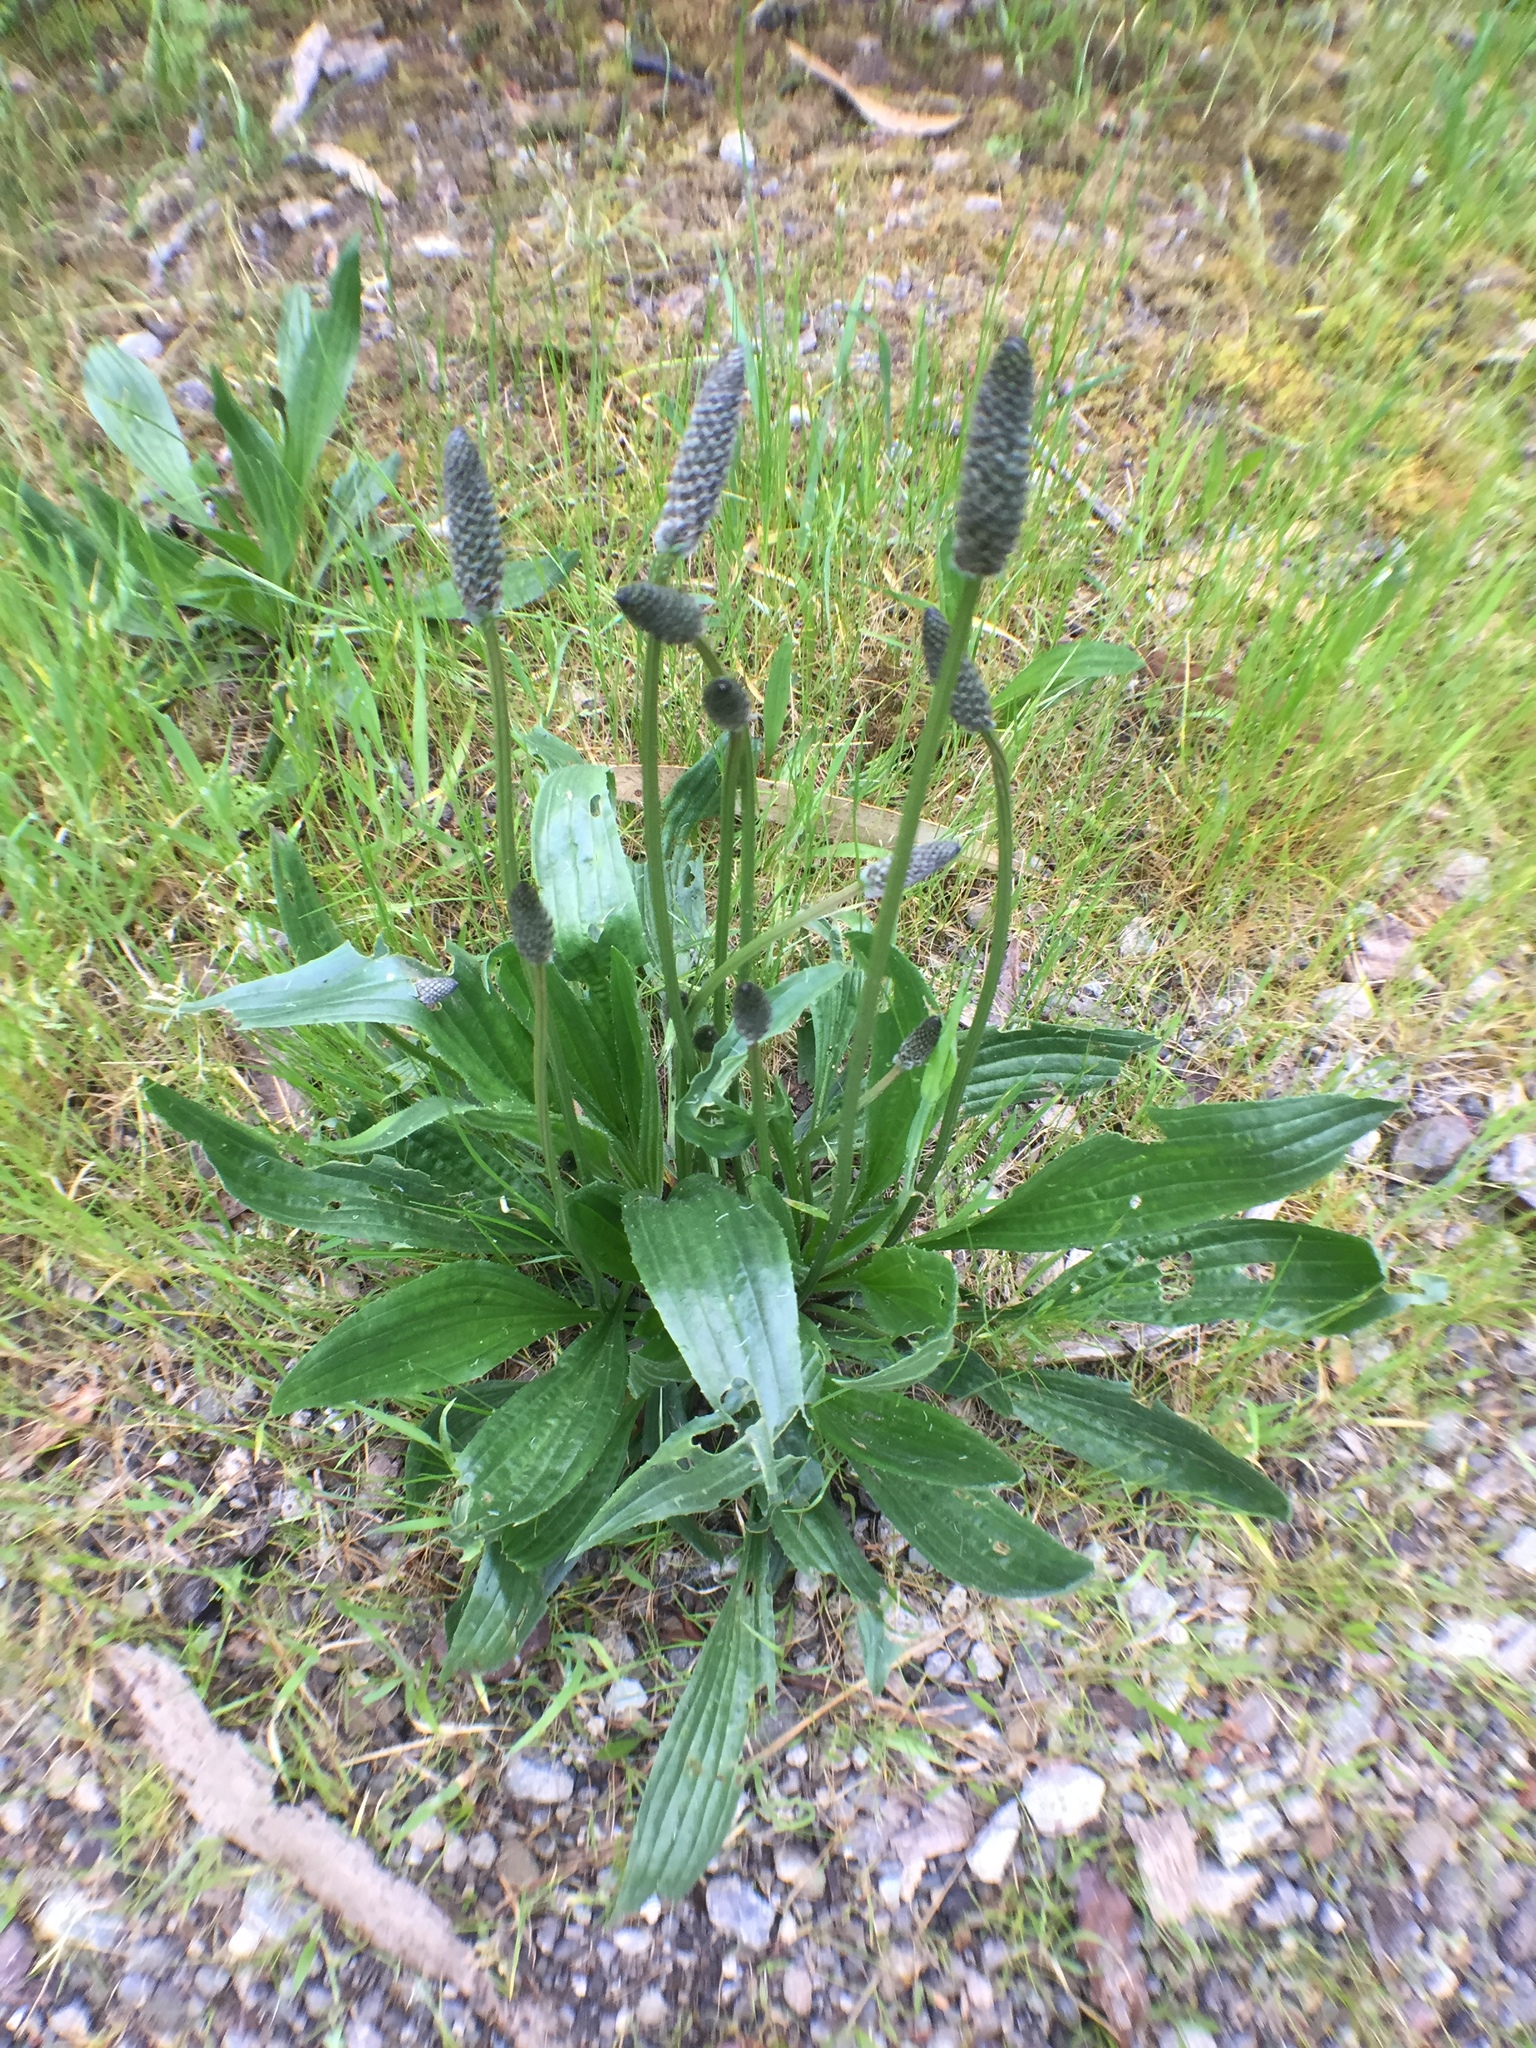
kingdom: Plantae
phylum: Tracheophyta
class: Magnoliopsida
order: Lamiales
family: Plantaginaceae
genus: Plantago
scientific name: Plantago lanceolata
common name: Ribwort plantain
